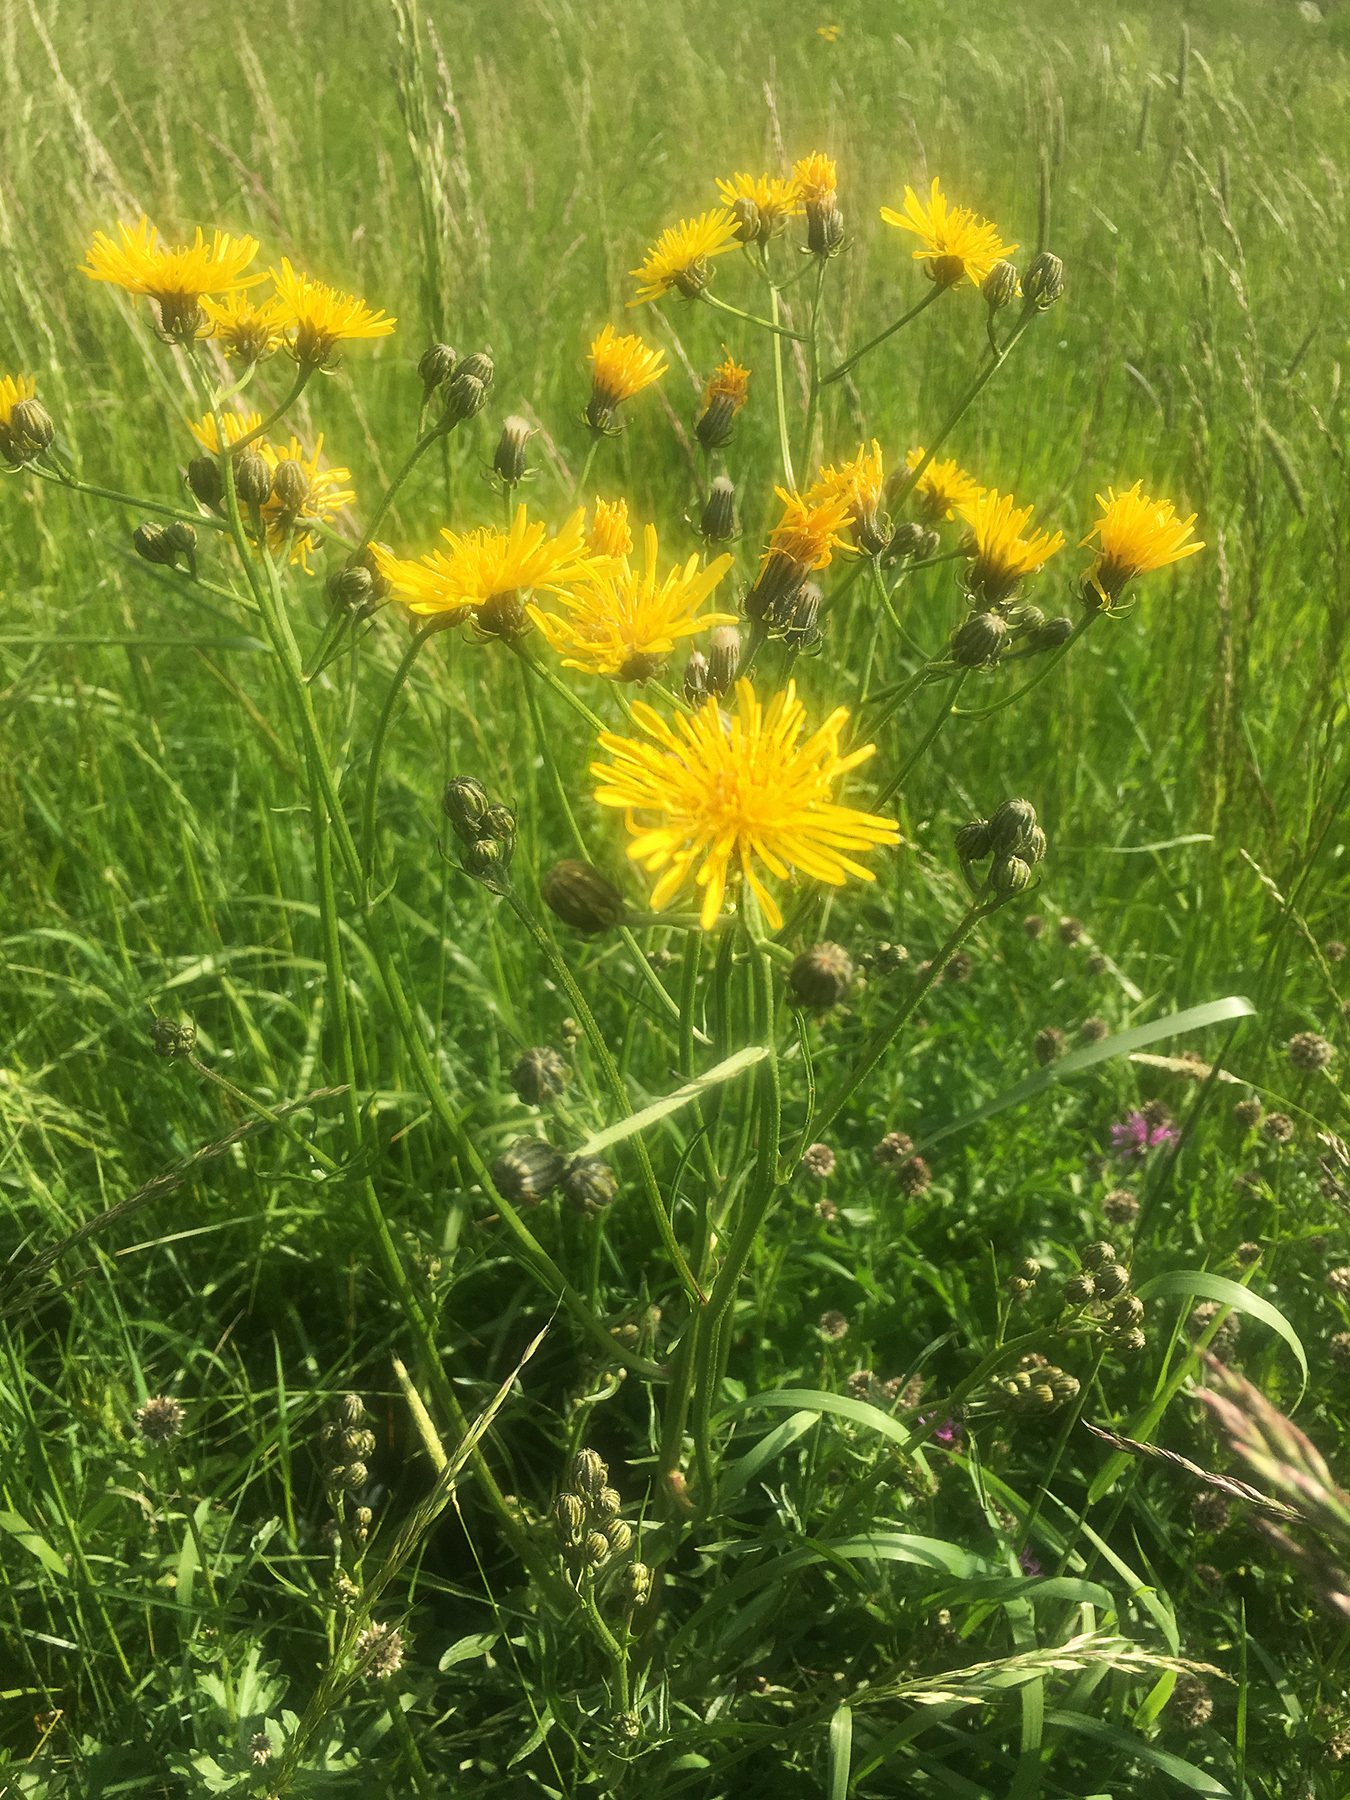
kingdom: Plantae
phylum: Tracheophyta
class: Magnoliopsida
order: Asterales
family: Asteraceae
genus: Crepis
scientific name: Crepis biennis
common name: Rough hawk's-beard
